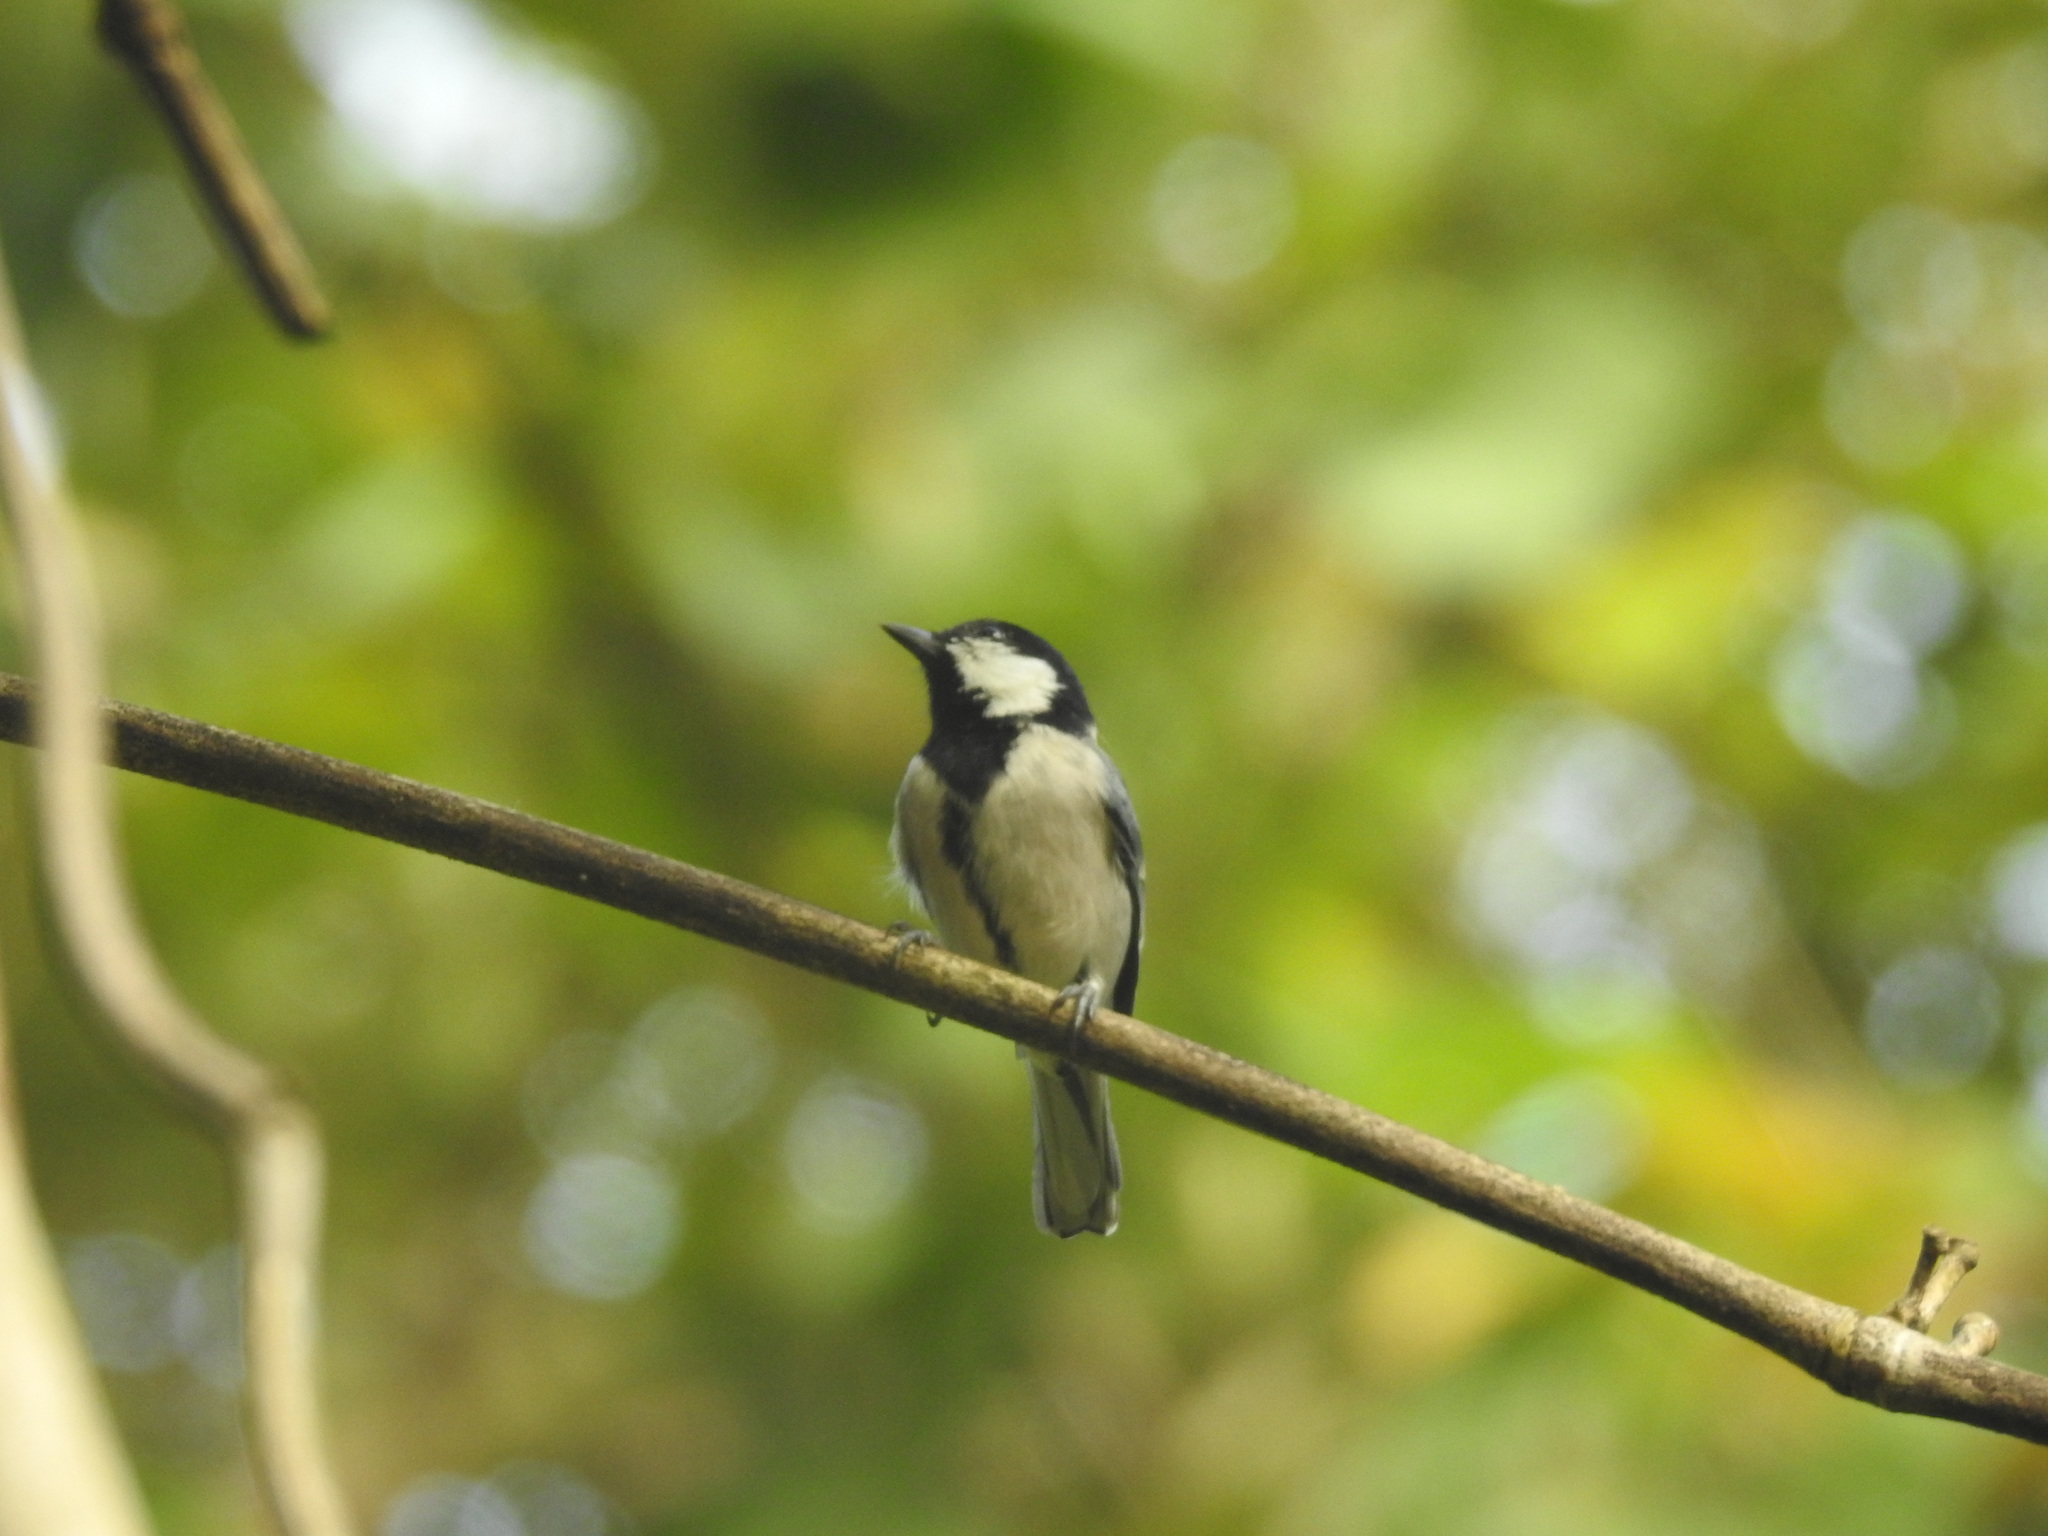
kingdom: Animalia
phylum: Chordata
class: Aves
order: Passeriformes
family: Paridae
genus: Parus
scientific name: Parus cinereus
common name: Cinereous tit
